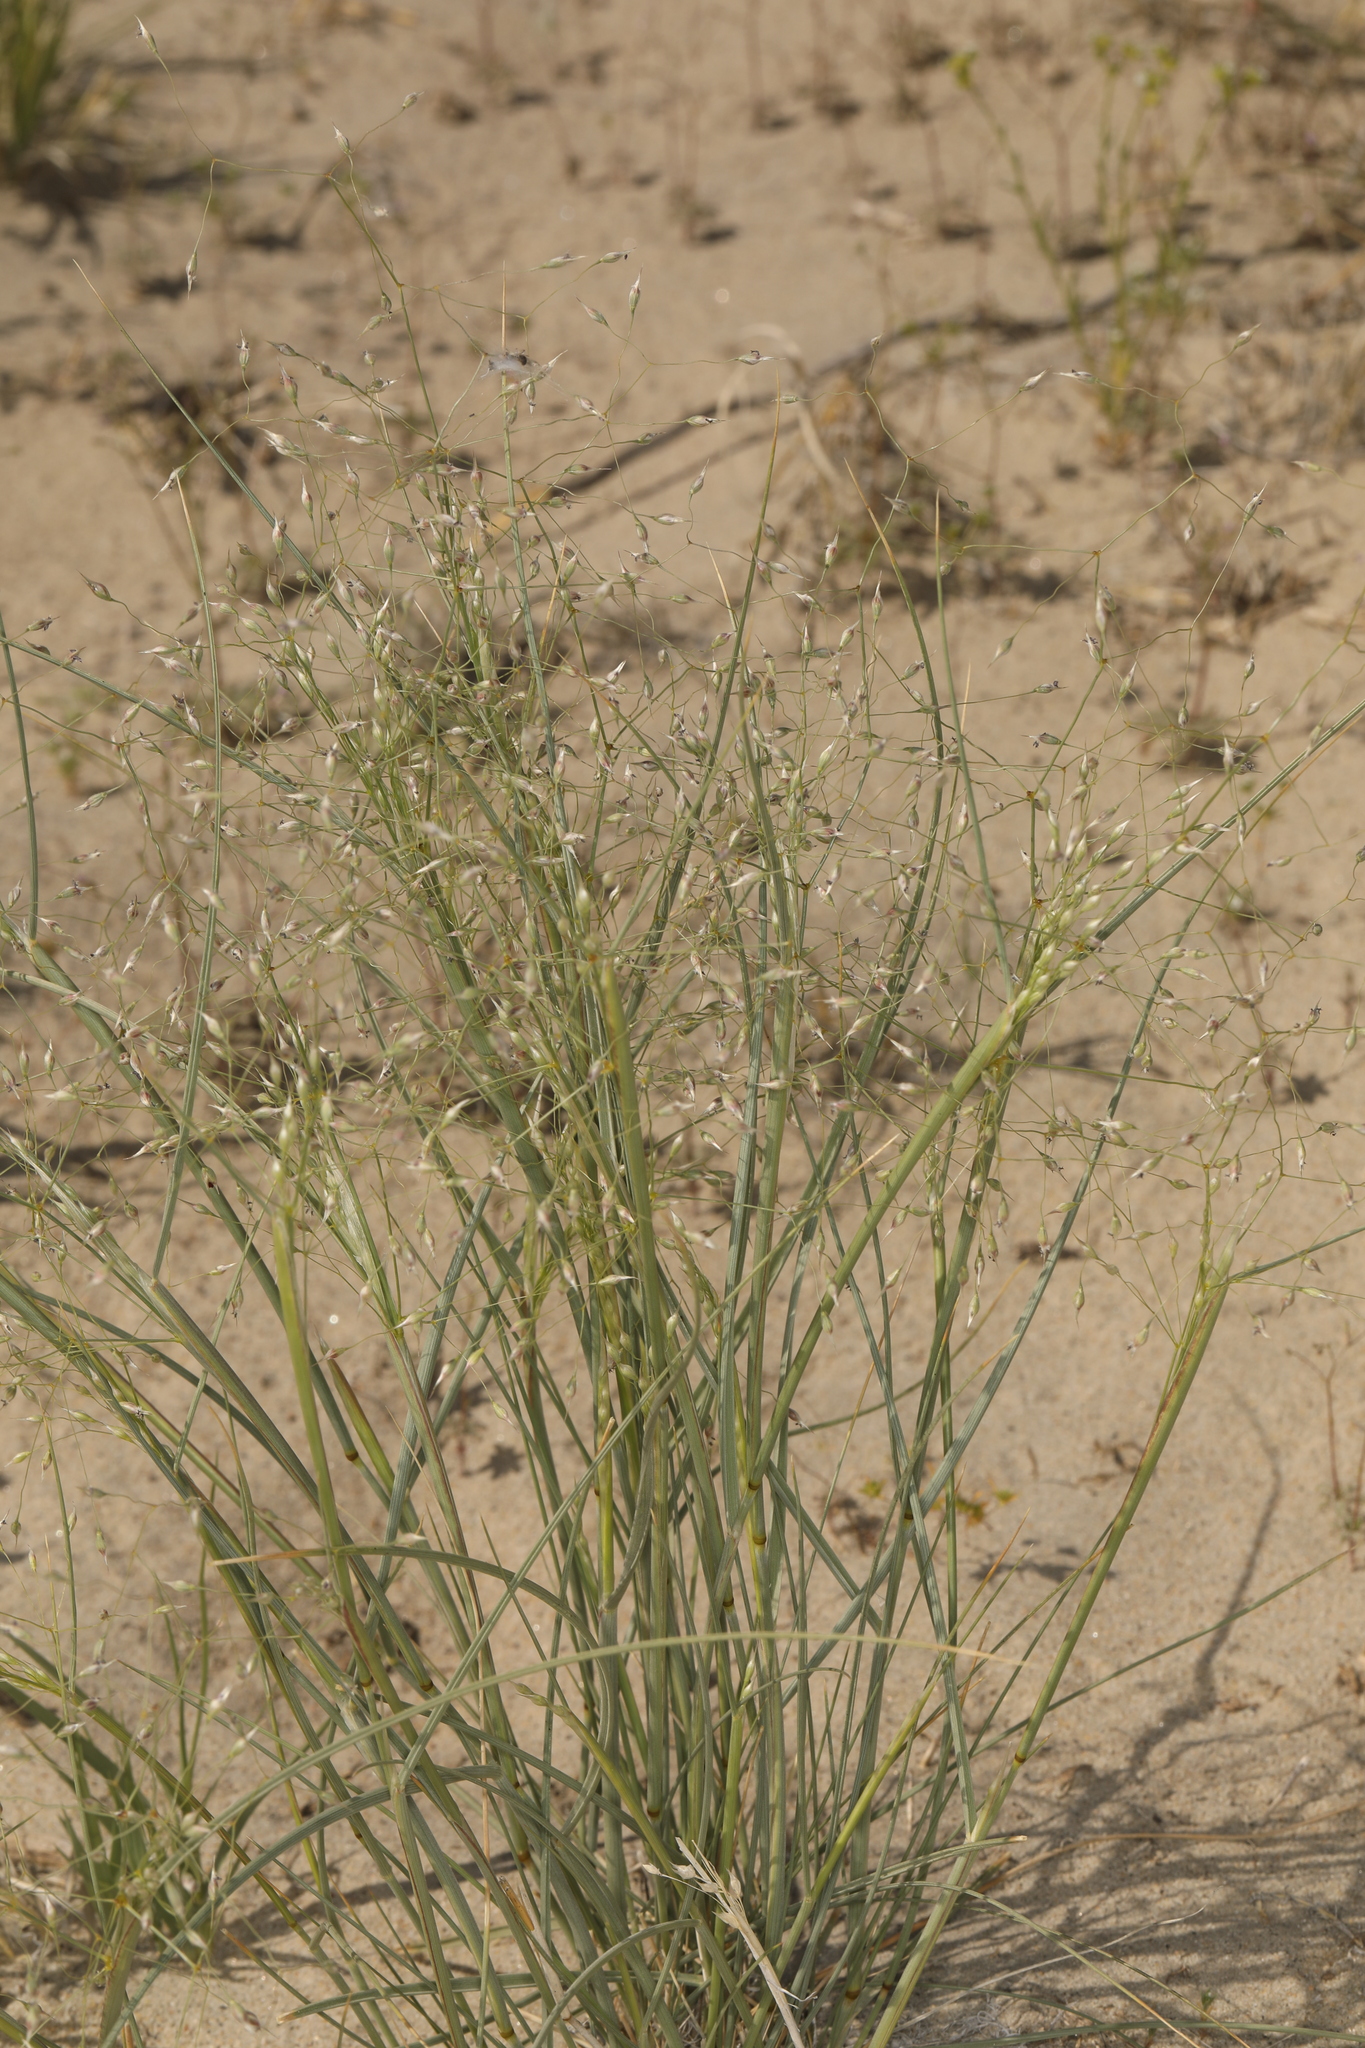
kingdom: Plantae
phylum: Tracheophyta
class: Liliopsida
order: Poales
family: Poaceae
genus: Eriocoma
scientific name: Eriocoma hymenoides
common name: Indian mountain ricegrass
